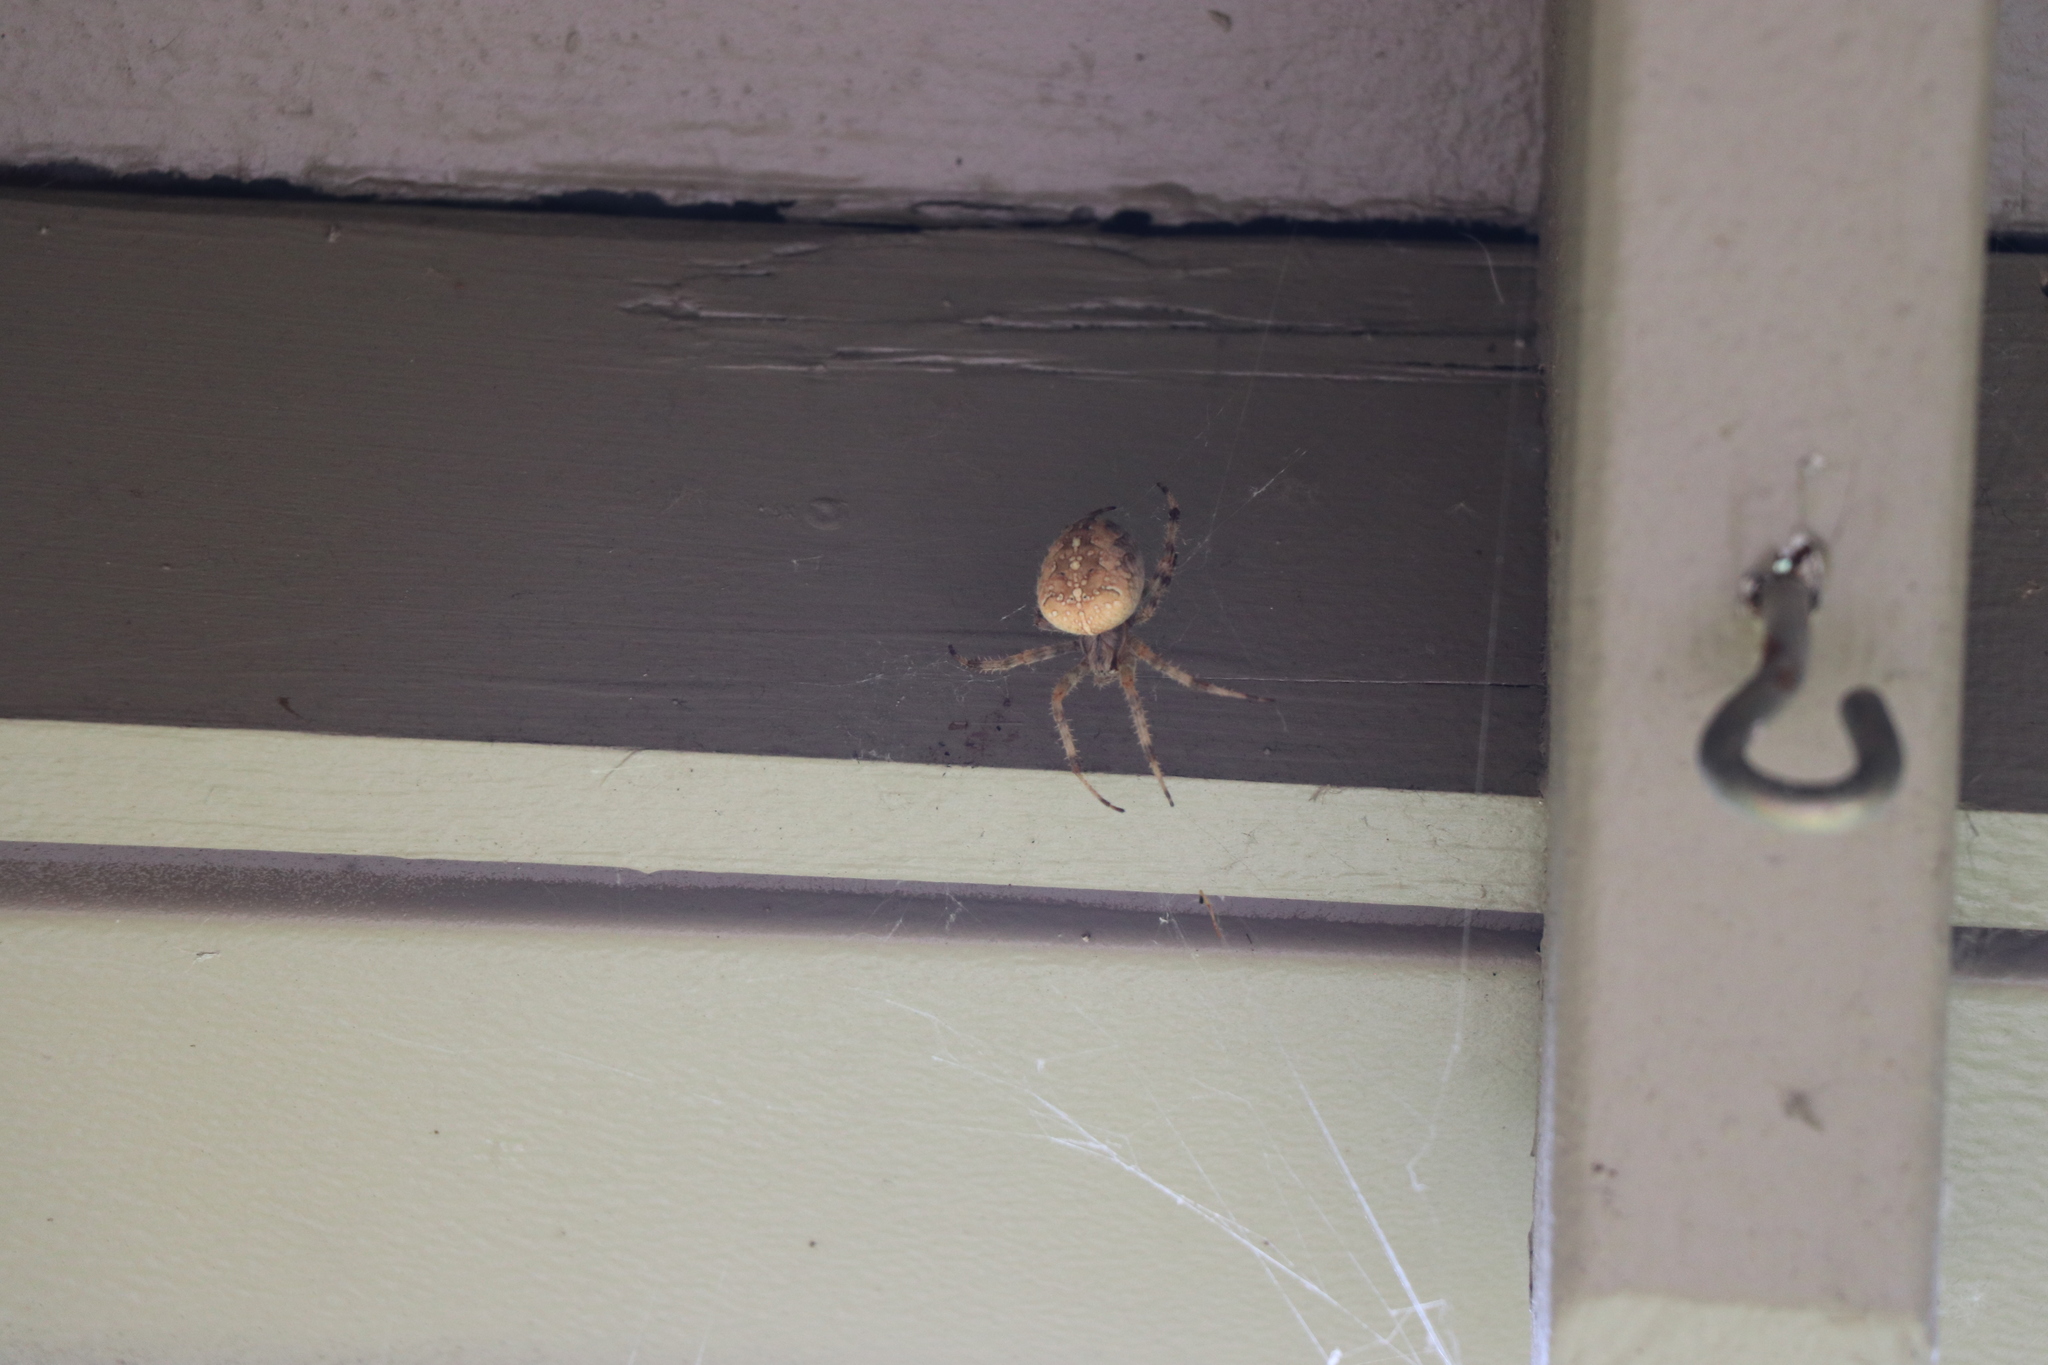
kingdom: Animalia
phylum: Arthropoda
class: Arachnida
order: Araneae
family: Araneidae
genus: Araneus
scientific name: Araneus diadematus
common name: Cross orbweaver
